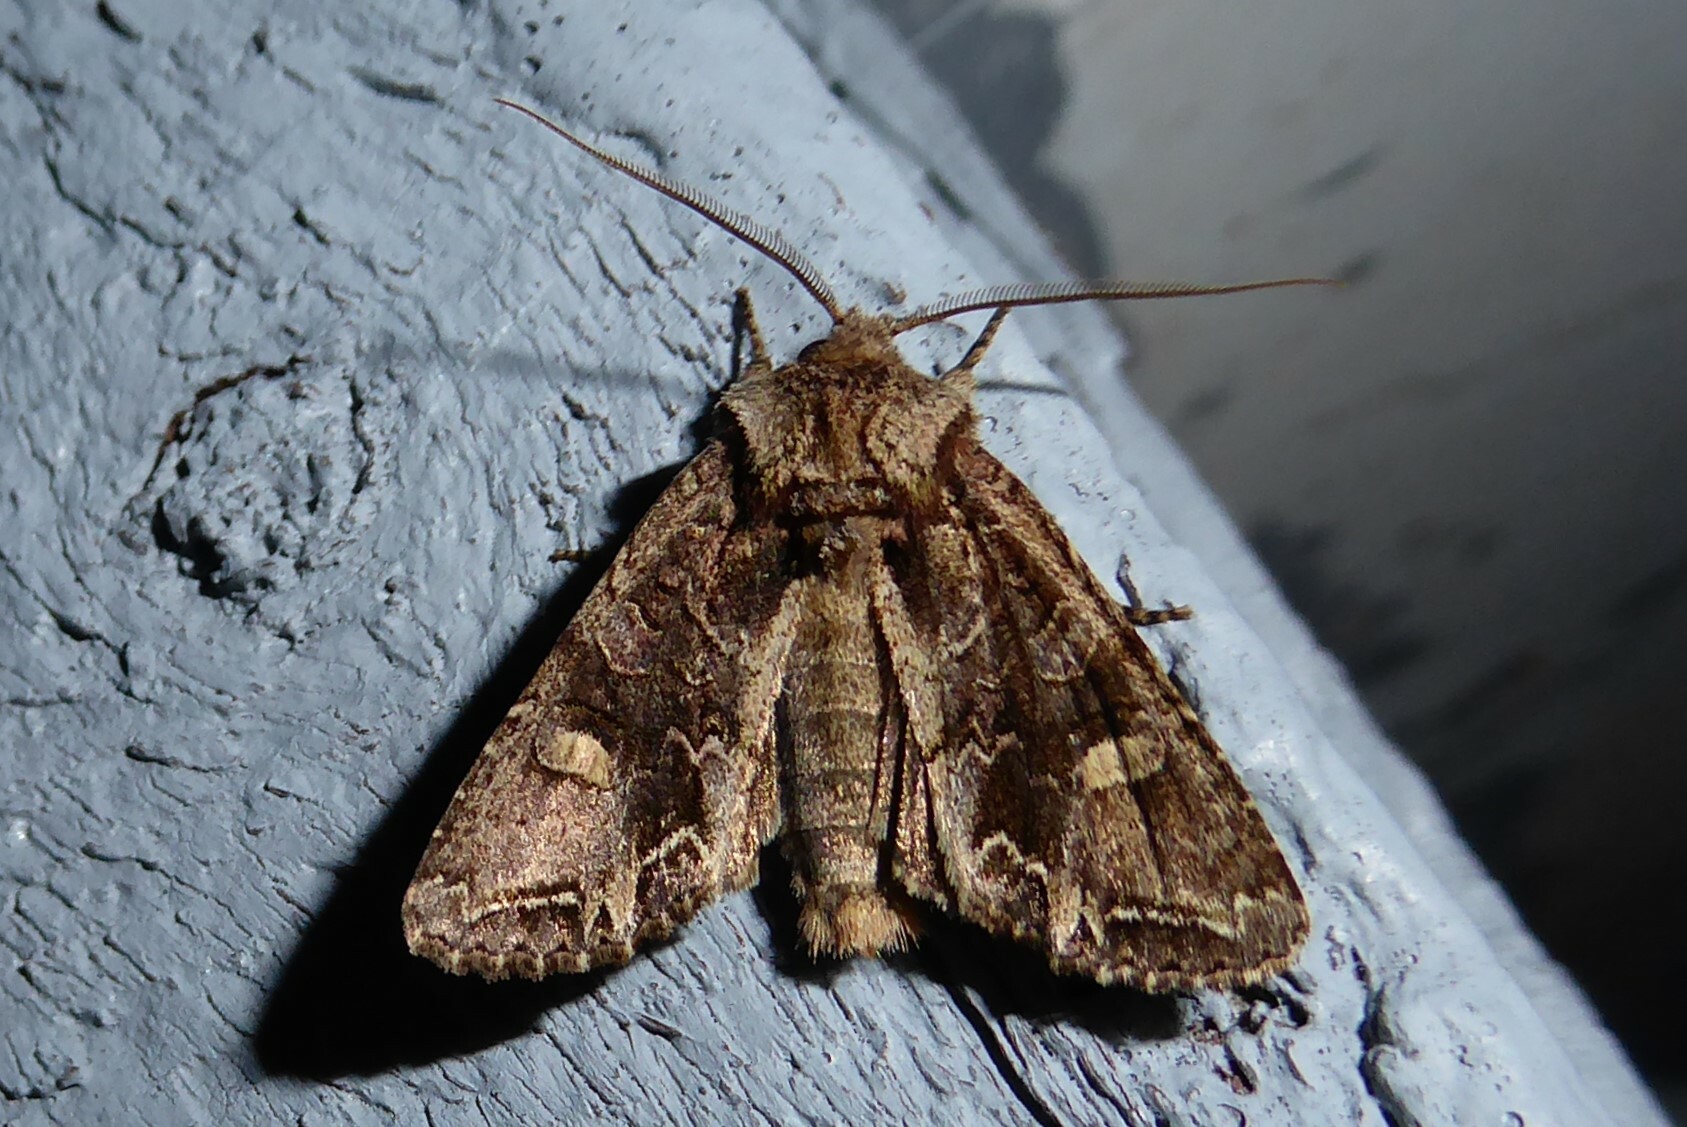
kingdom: Animalia
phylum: Arthropoda
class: Insecta
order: Lepidoptera
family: Noctuidae
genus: Ichneutica
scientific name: Ichneutica skelloni
